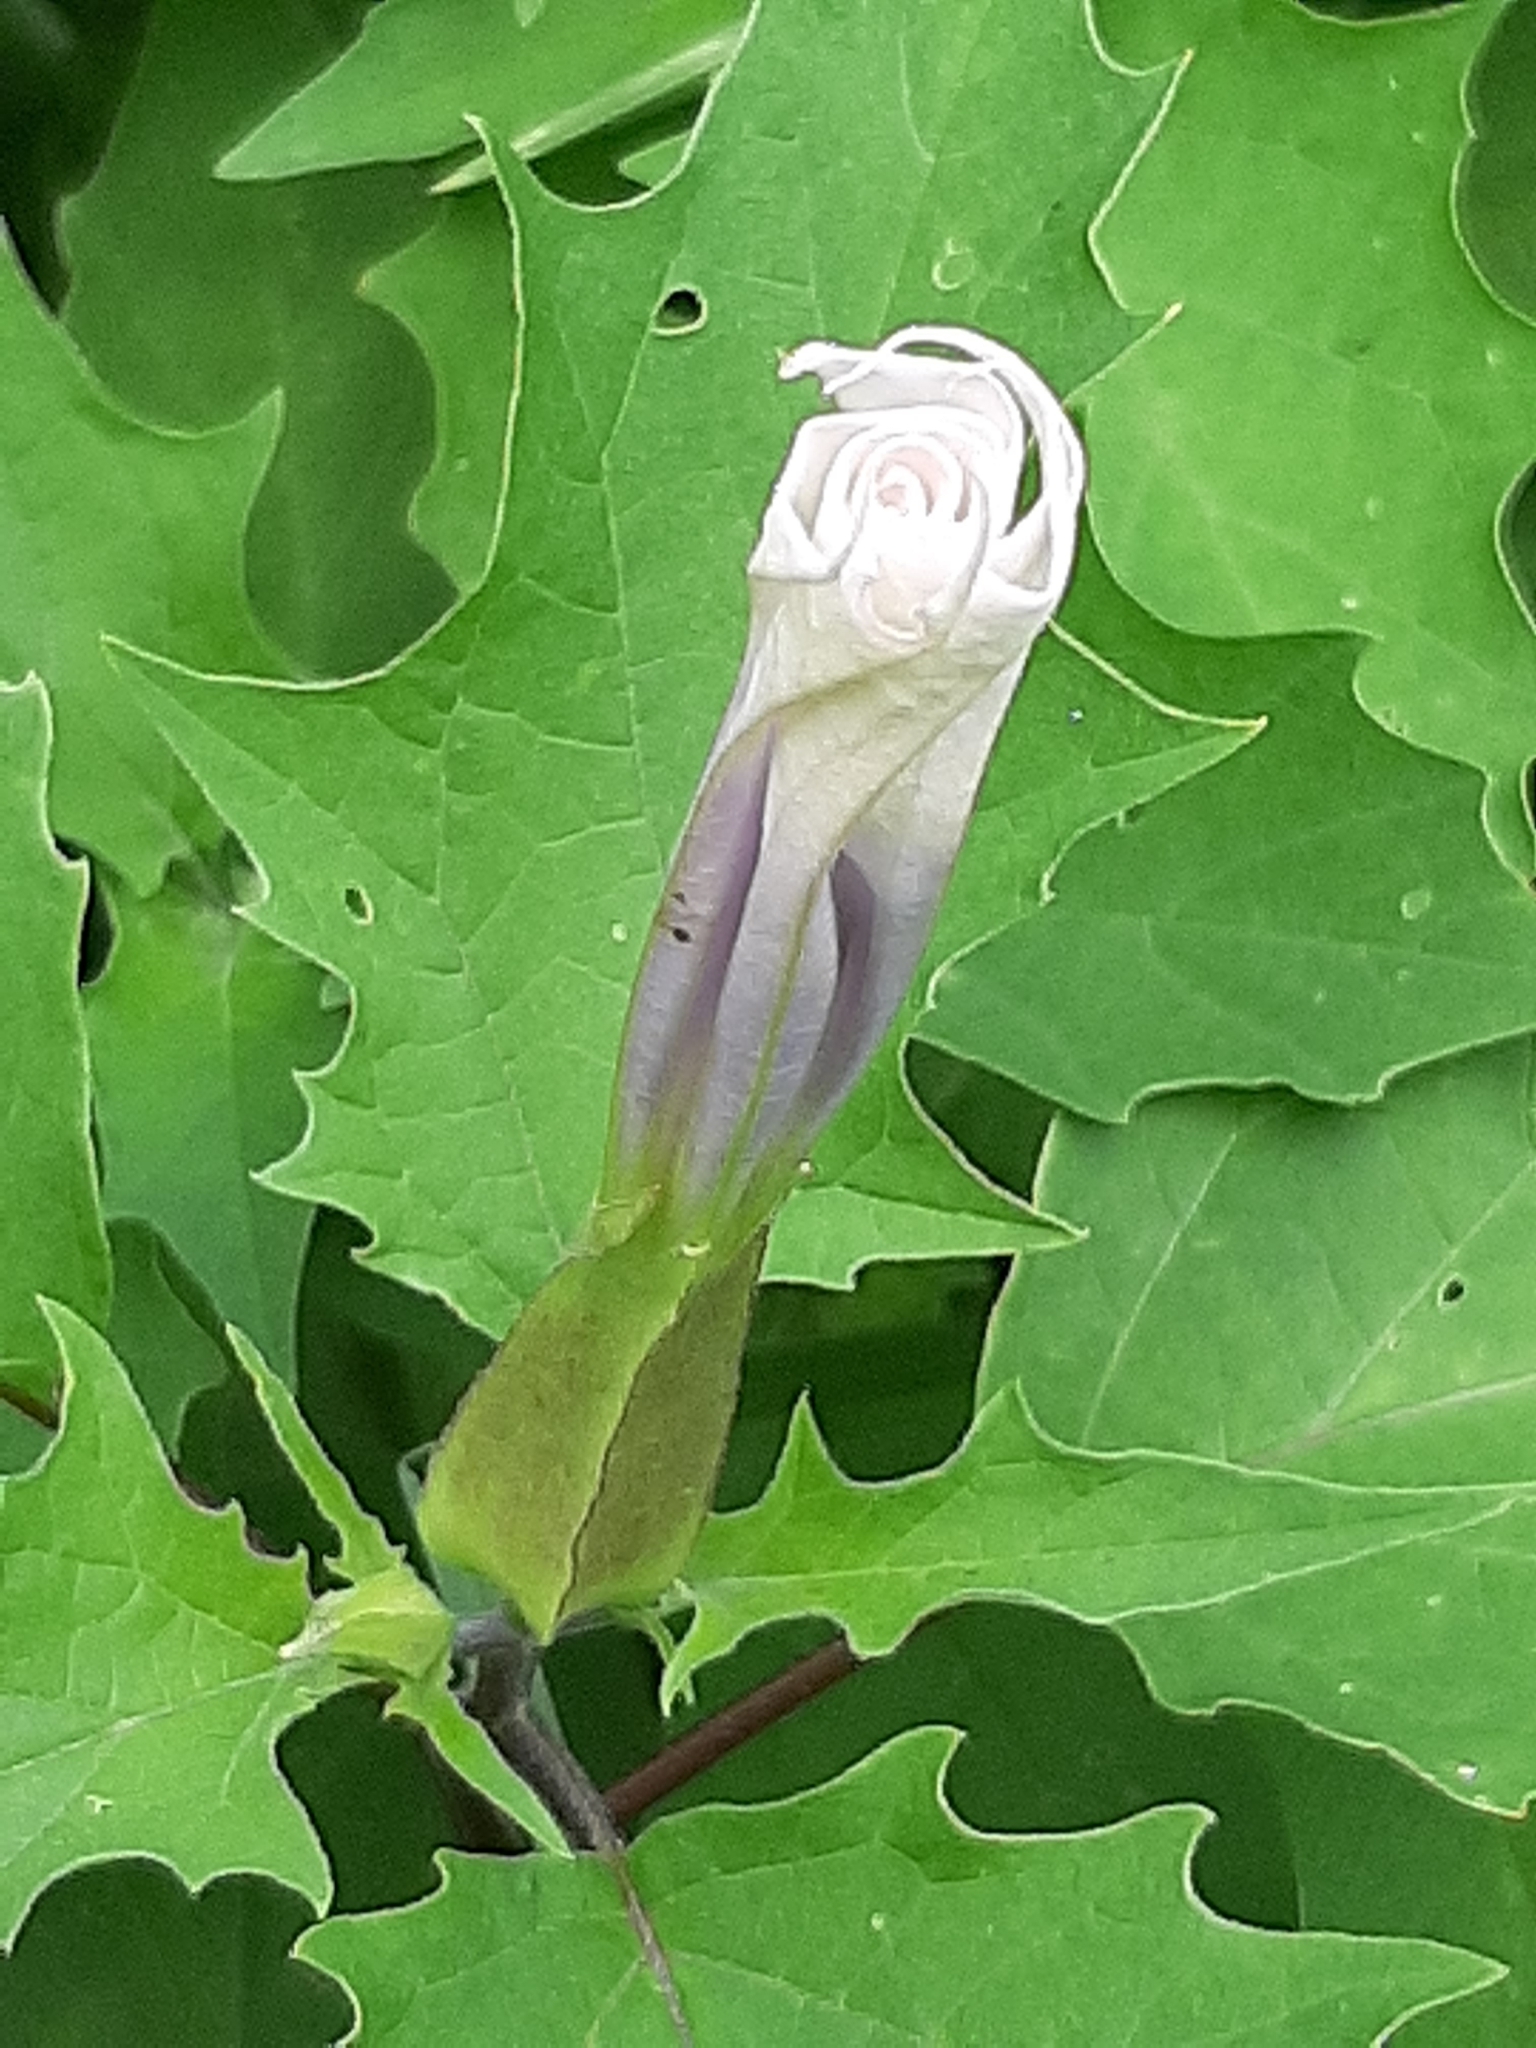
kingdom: Plantae
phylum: Tracheophyta
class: Magnoliopsida
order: Solanales
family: Solanaceae
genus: Datura
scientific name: Datura stramonium
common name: Thorn-apple
